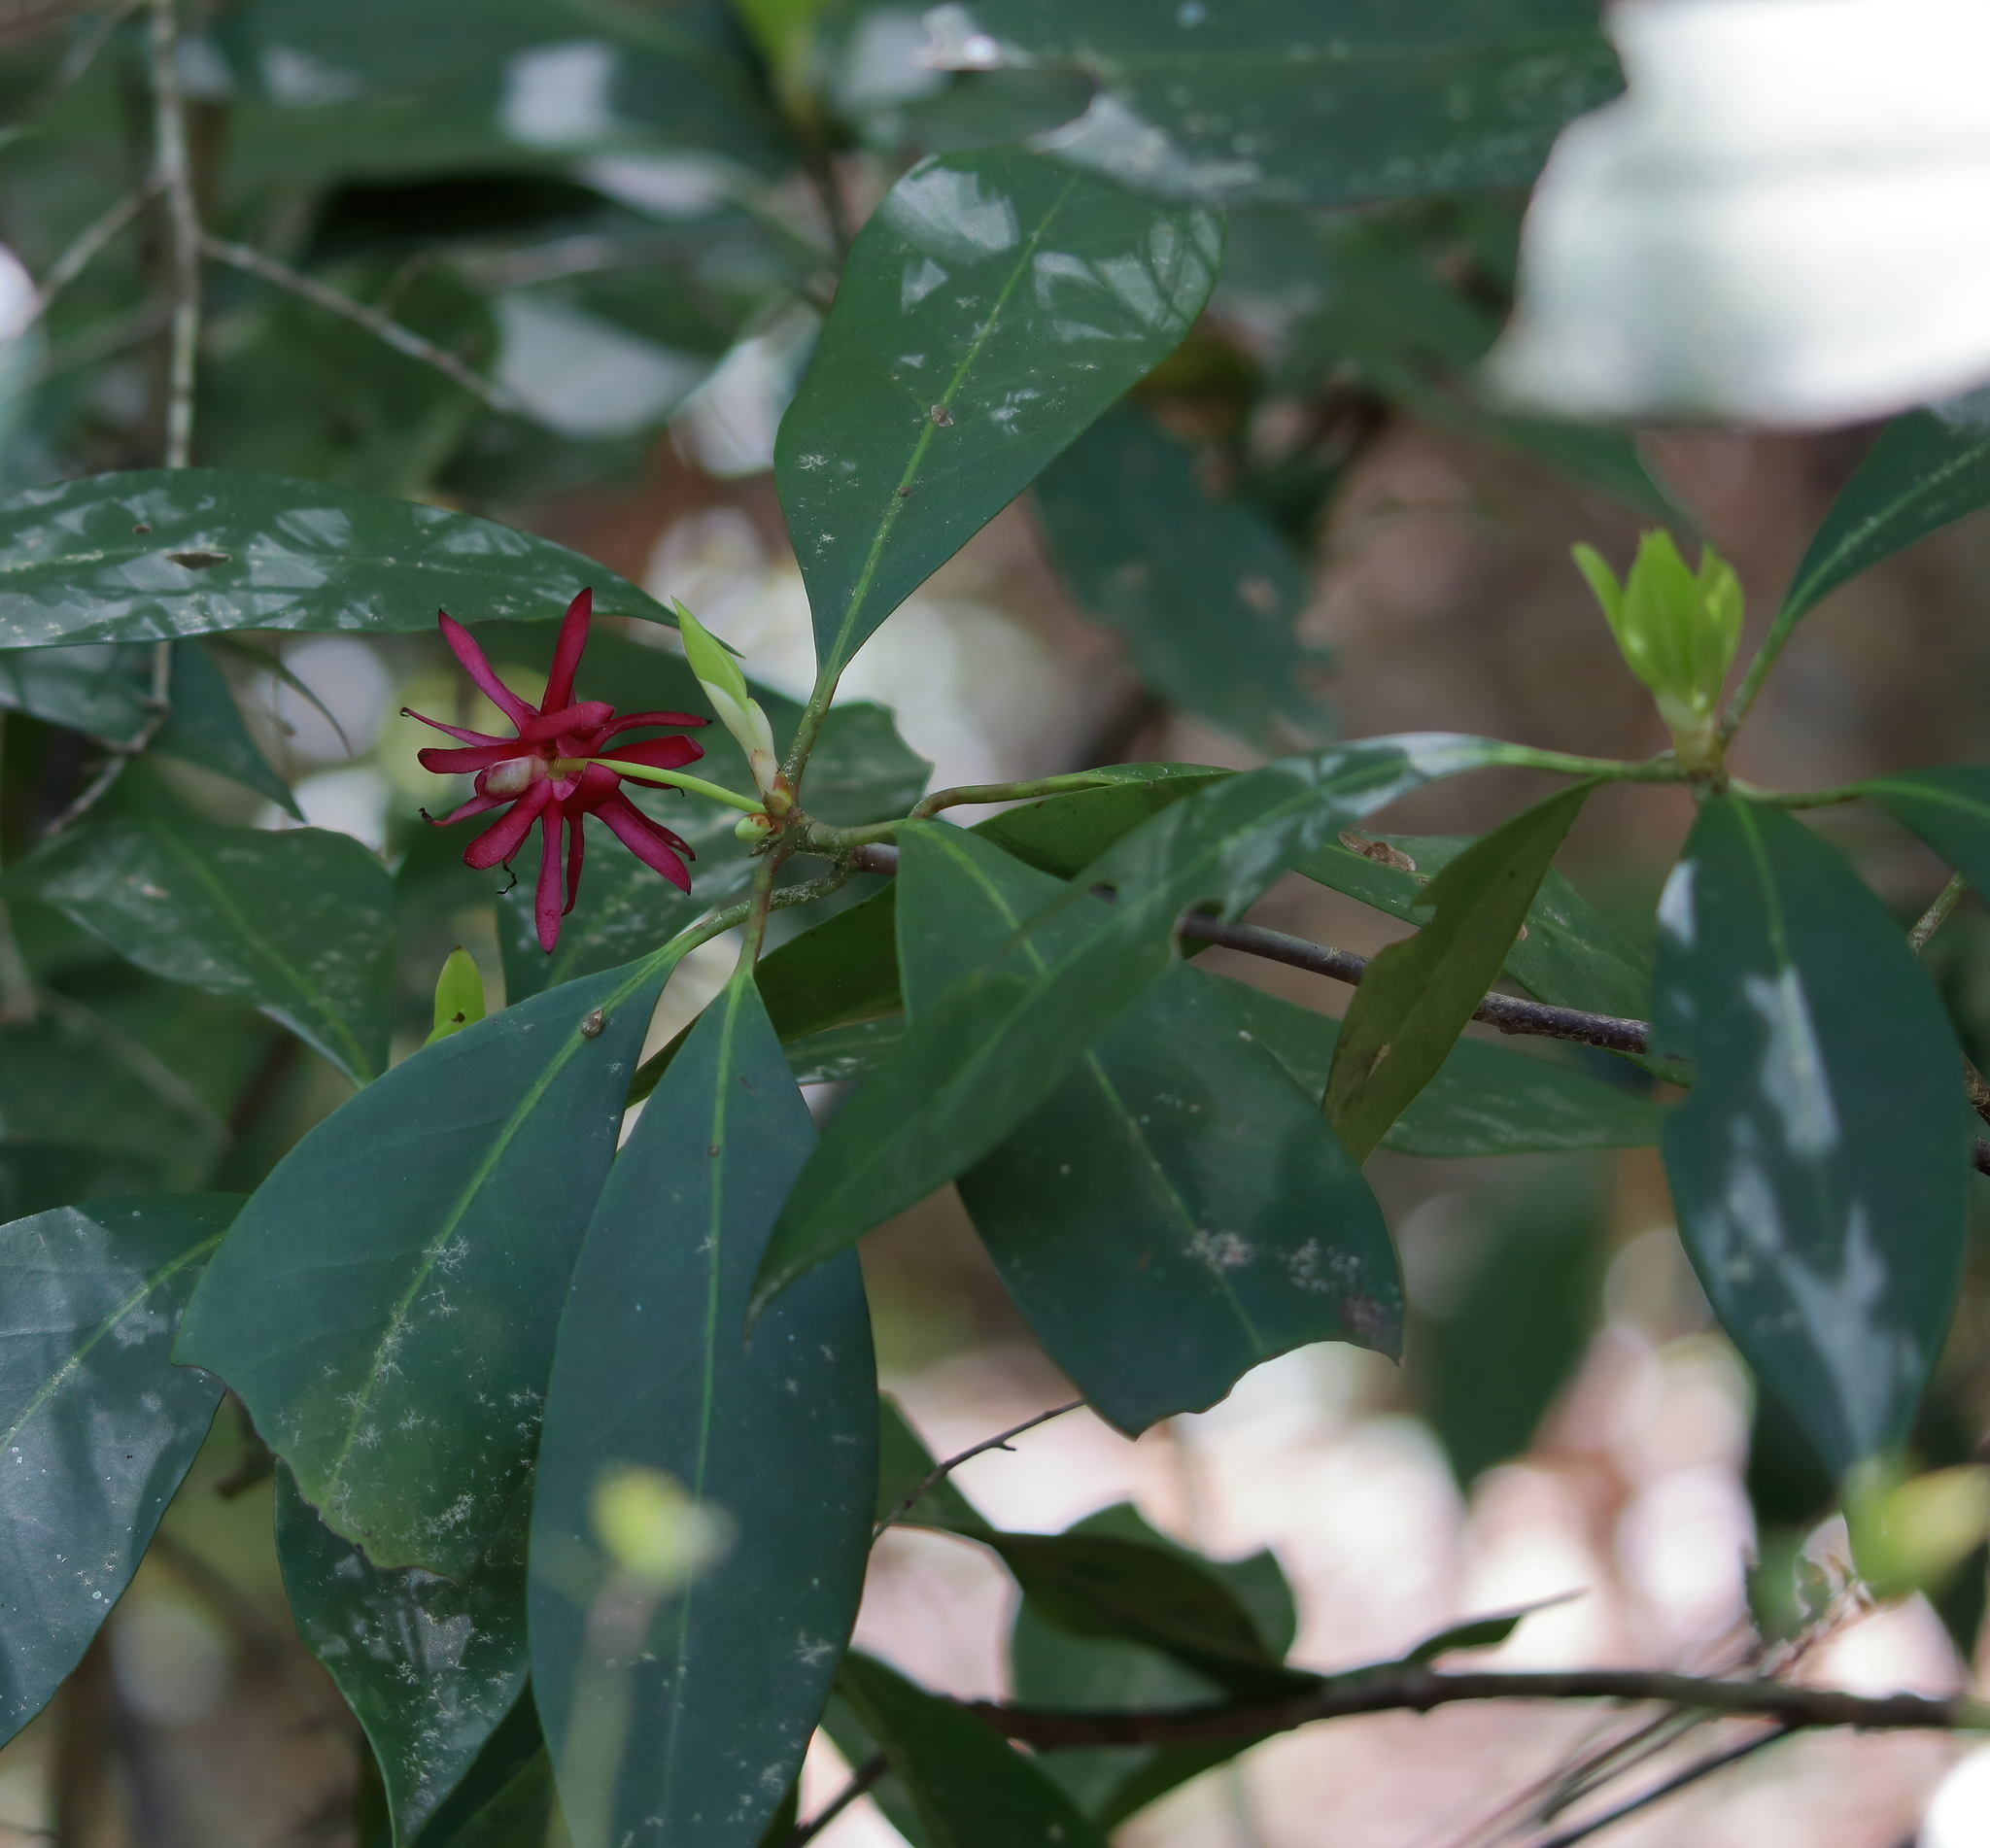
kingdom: Plantae
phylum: Tracheophyta
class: Magnoliopsida
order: Austrobaileyales
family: Schisandraceae
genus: Illicium
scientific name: Illicium floridanum
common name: Florida anisetree
